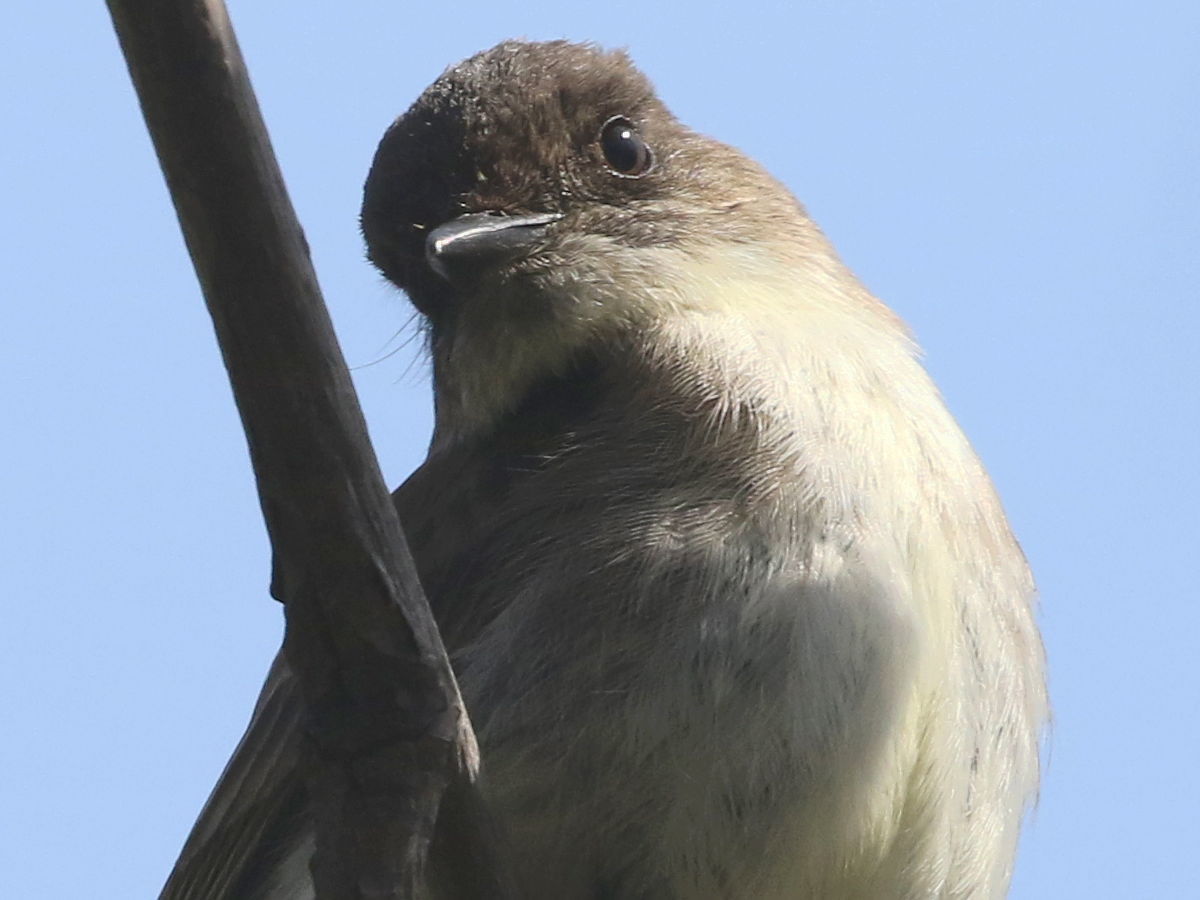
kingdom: Animalia
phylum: Chordata
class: Aves
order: Passeriformes
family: Tyrannidae
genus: Sayornis
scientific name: Sayornis phoebe
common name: Eastern phoebe
